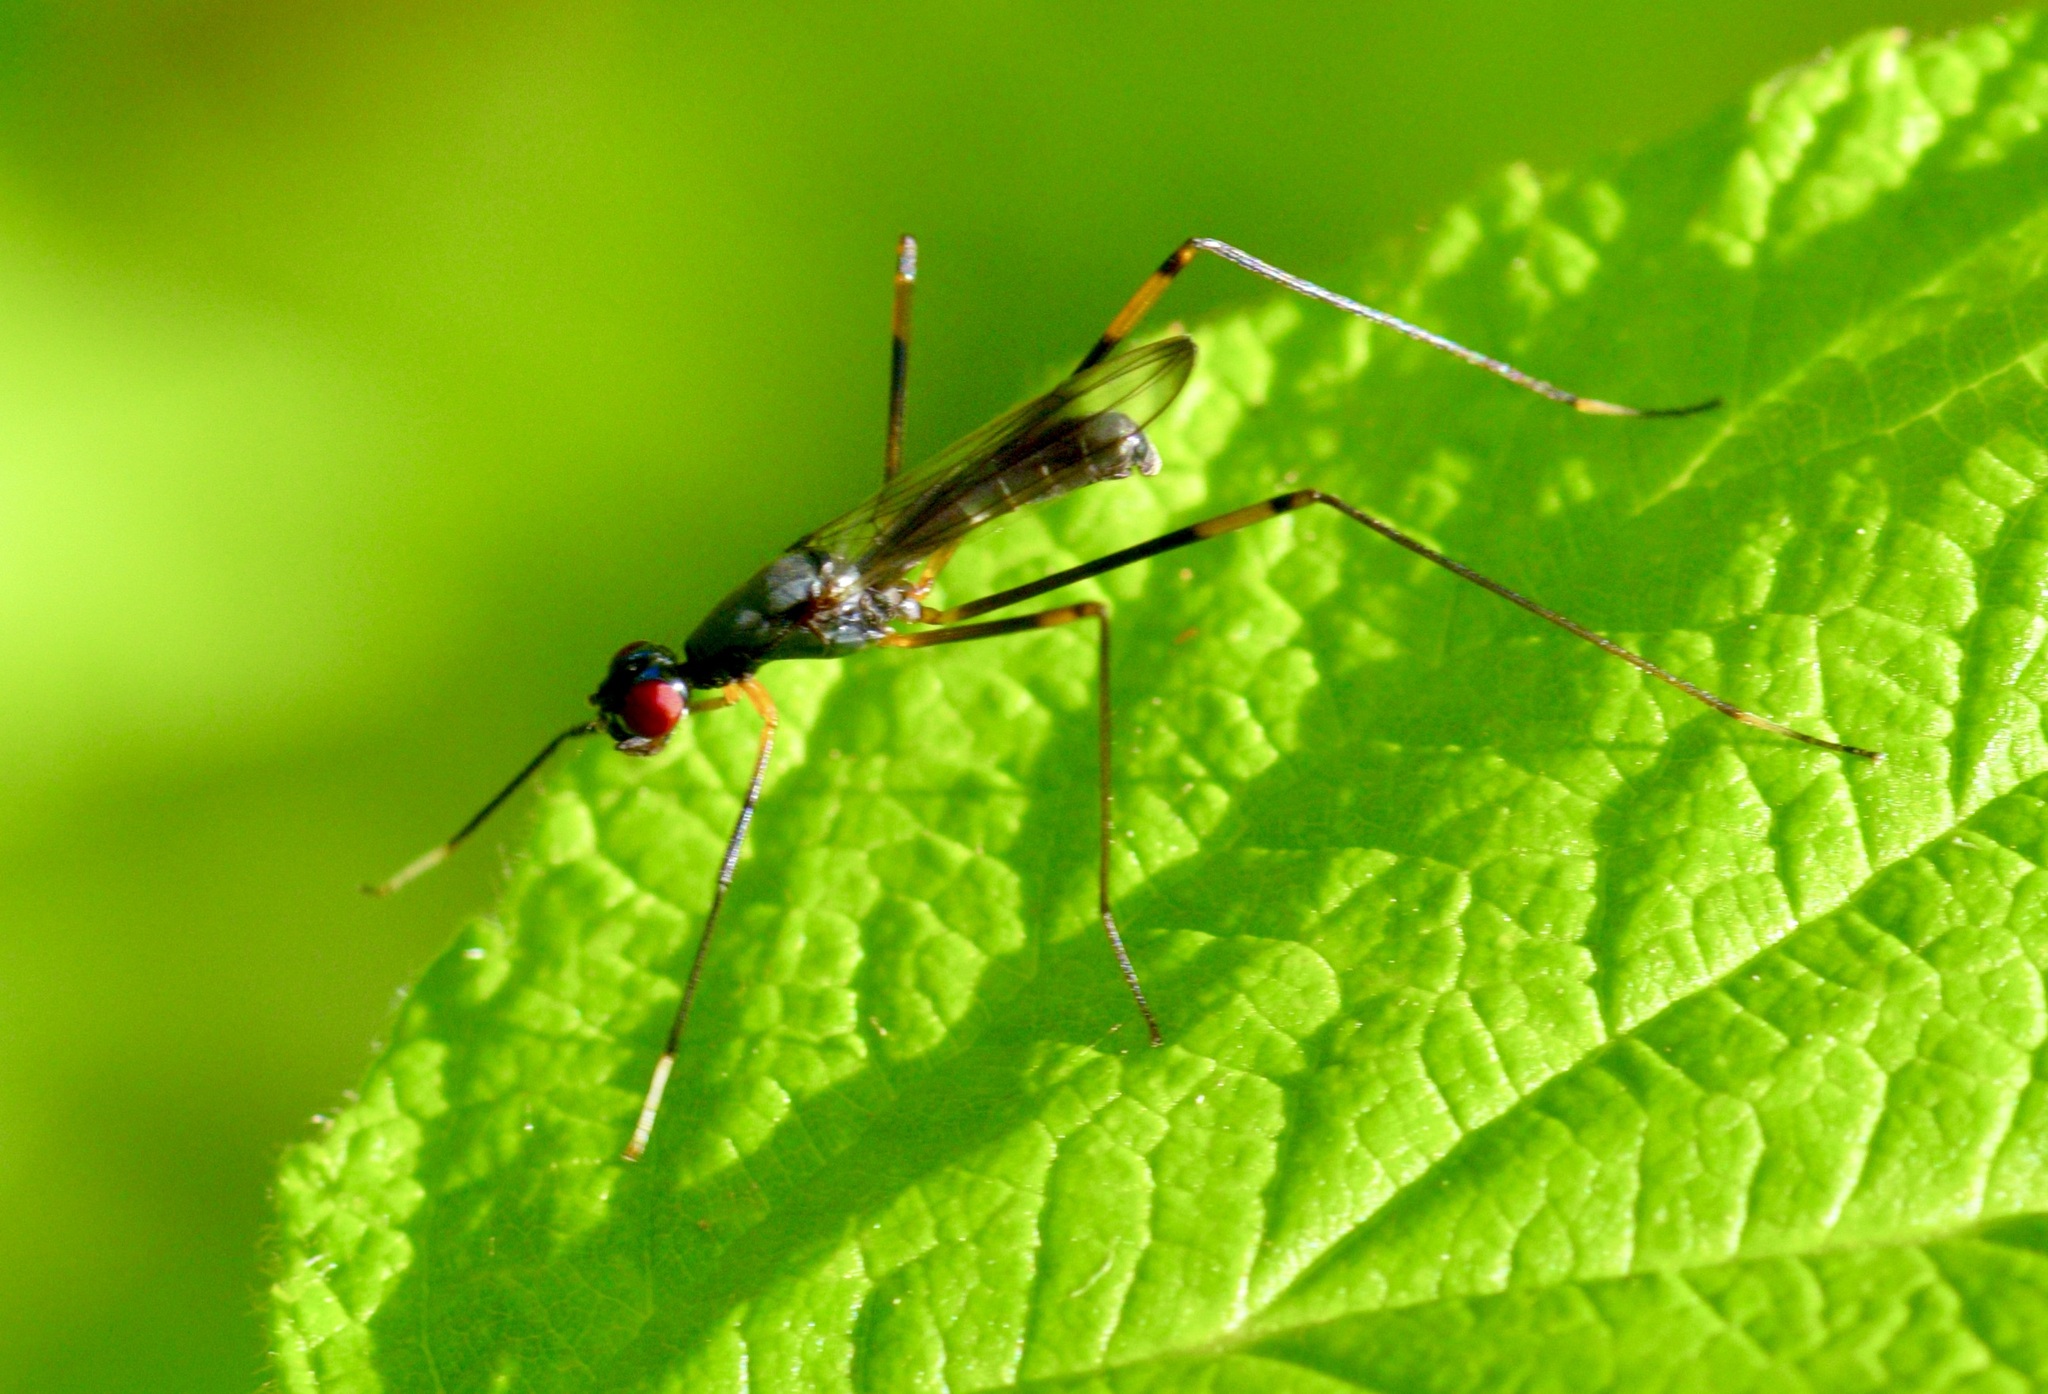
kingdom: Animalia
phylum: Arthropoda
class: Insecta
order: Diptera
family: Micropezidae
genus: Rainieria
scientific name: Rainieria antennaepes
